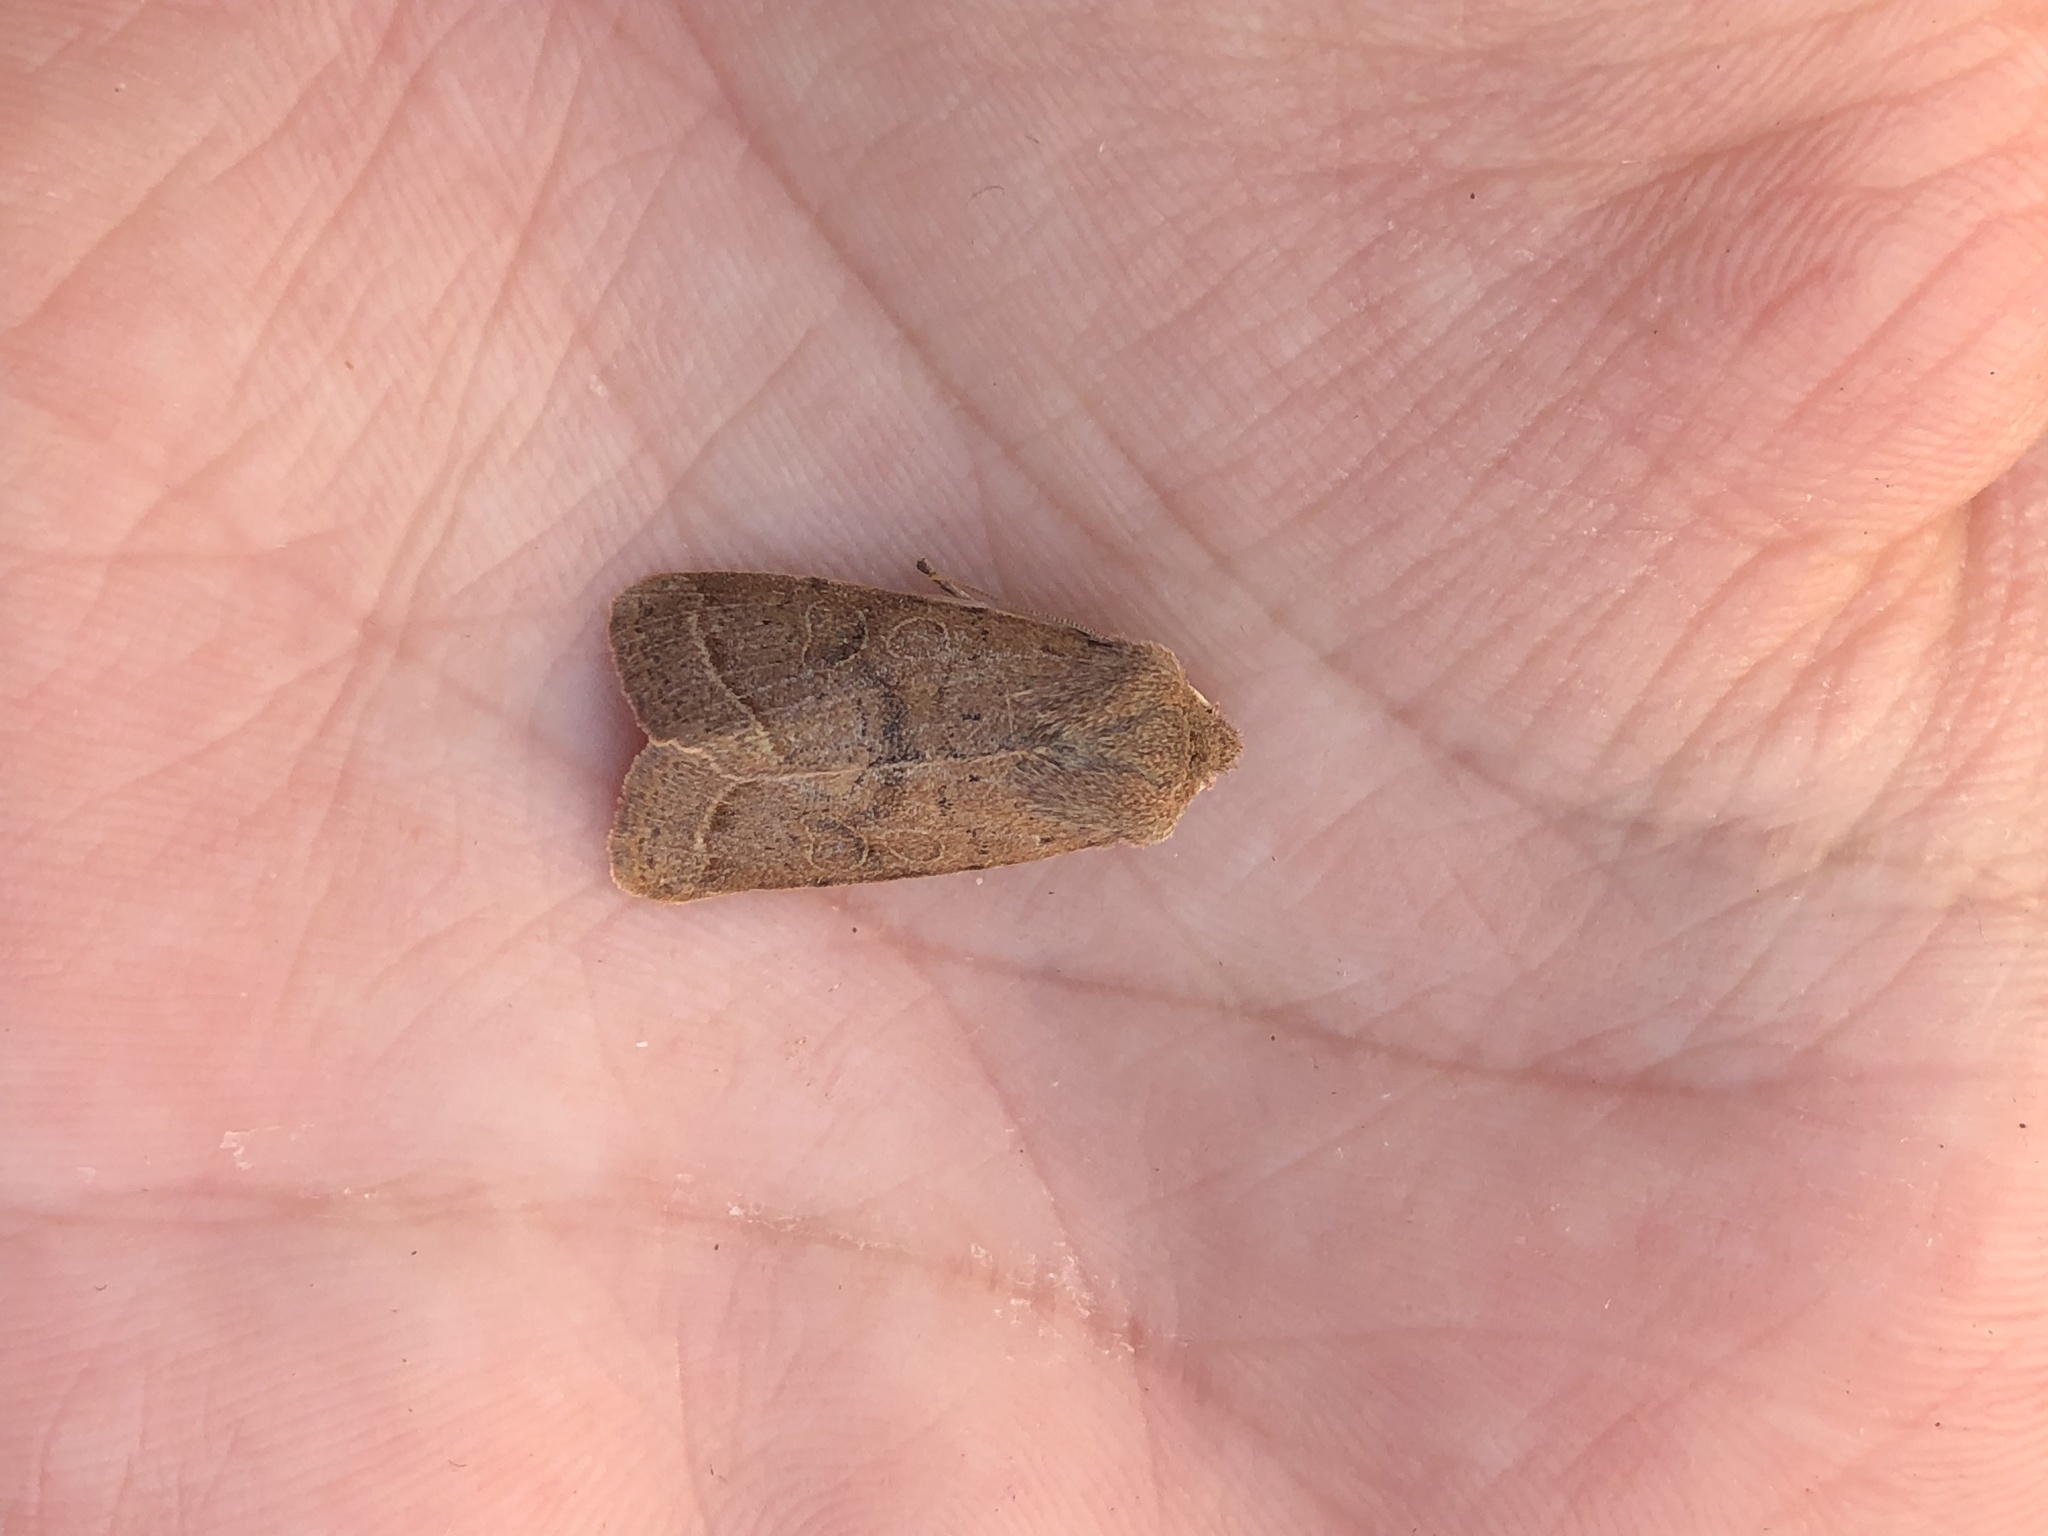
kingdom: Animalia
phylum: Arthropoda
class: Insecta
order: Lepidoptera
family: Noctuidae
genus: Orthosia
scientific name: Orthosia cerasi
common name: Common quaker
